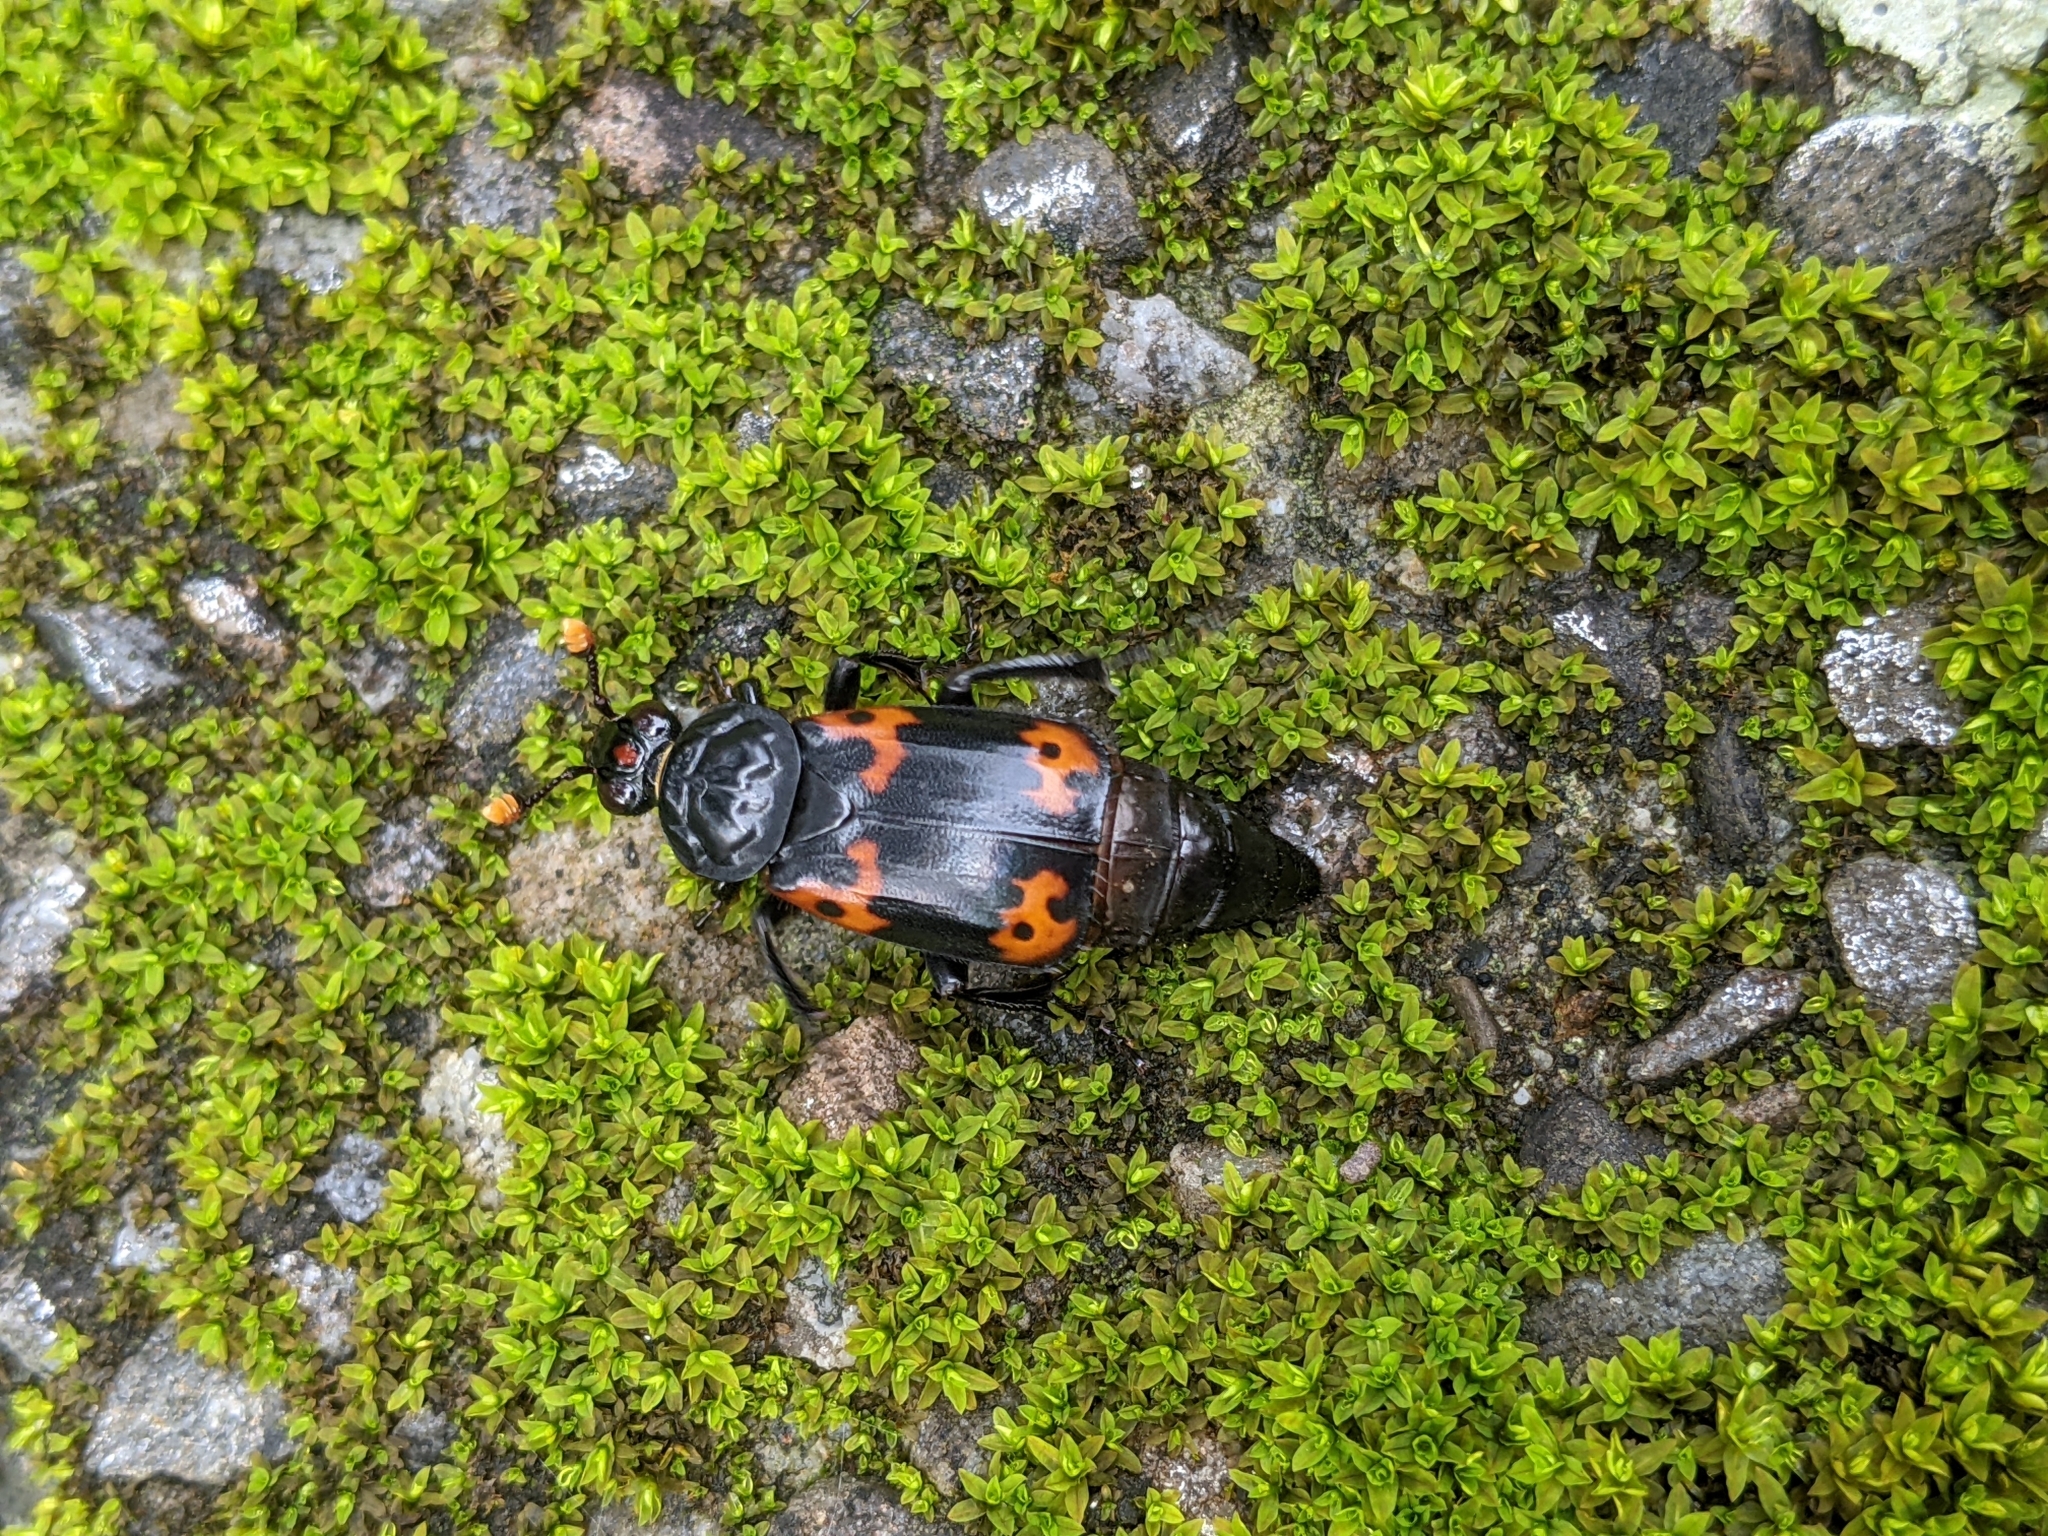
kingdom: Animalia
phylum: Arthropoda
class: Insecta
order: Coleoptera
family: Staphylinidae
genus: Nicrophorus
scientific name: Nicrophorus nepalensis
